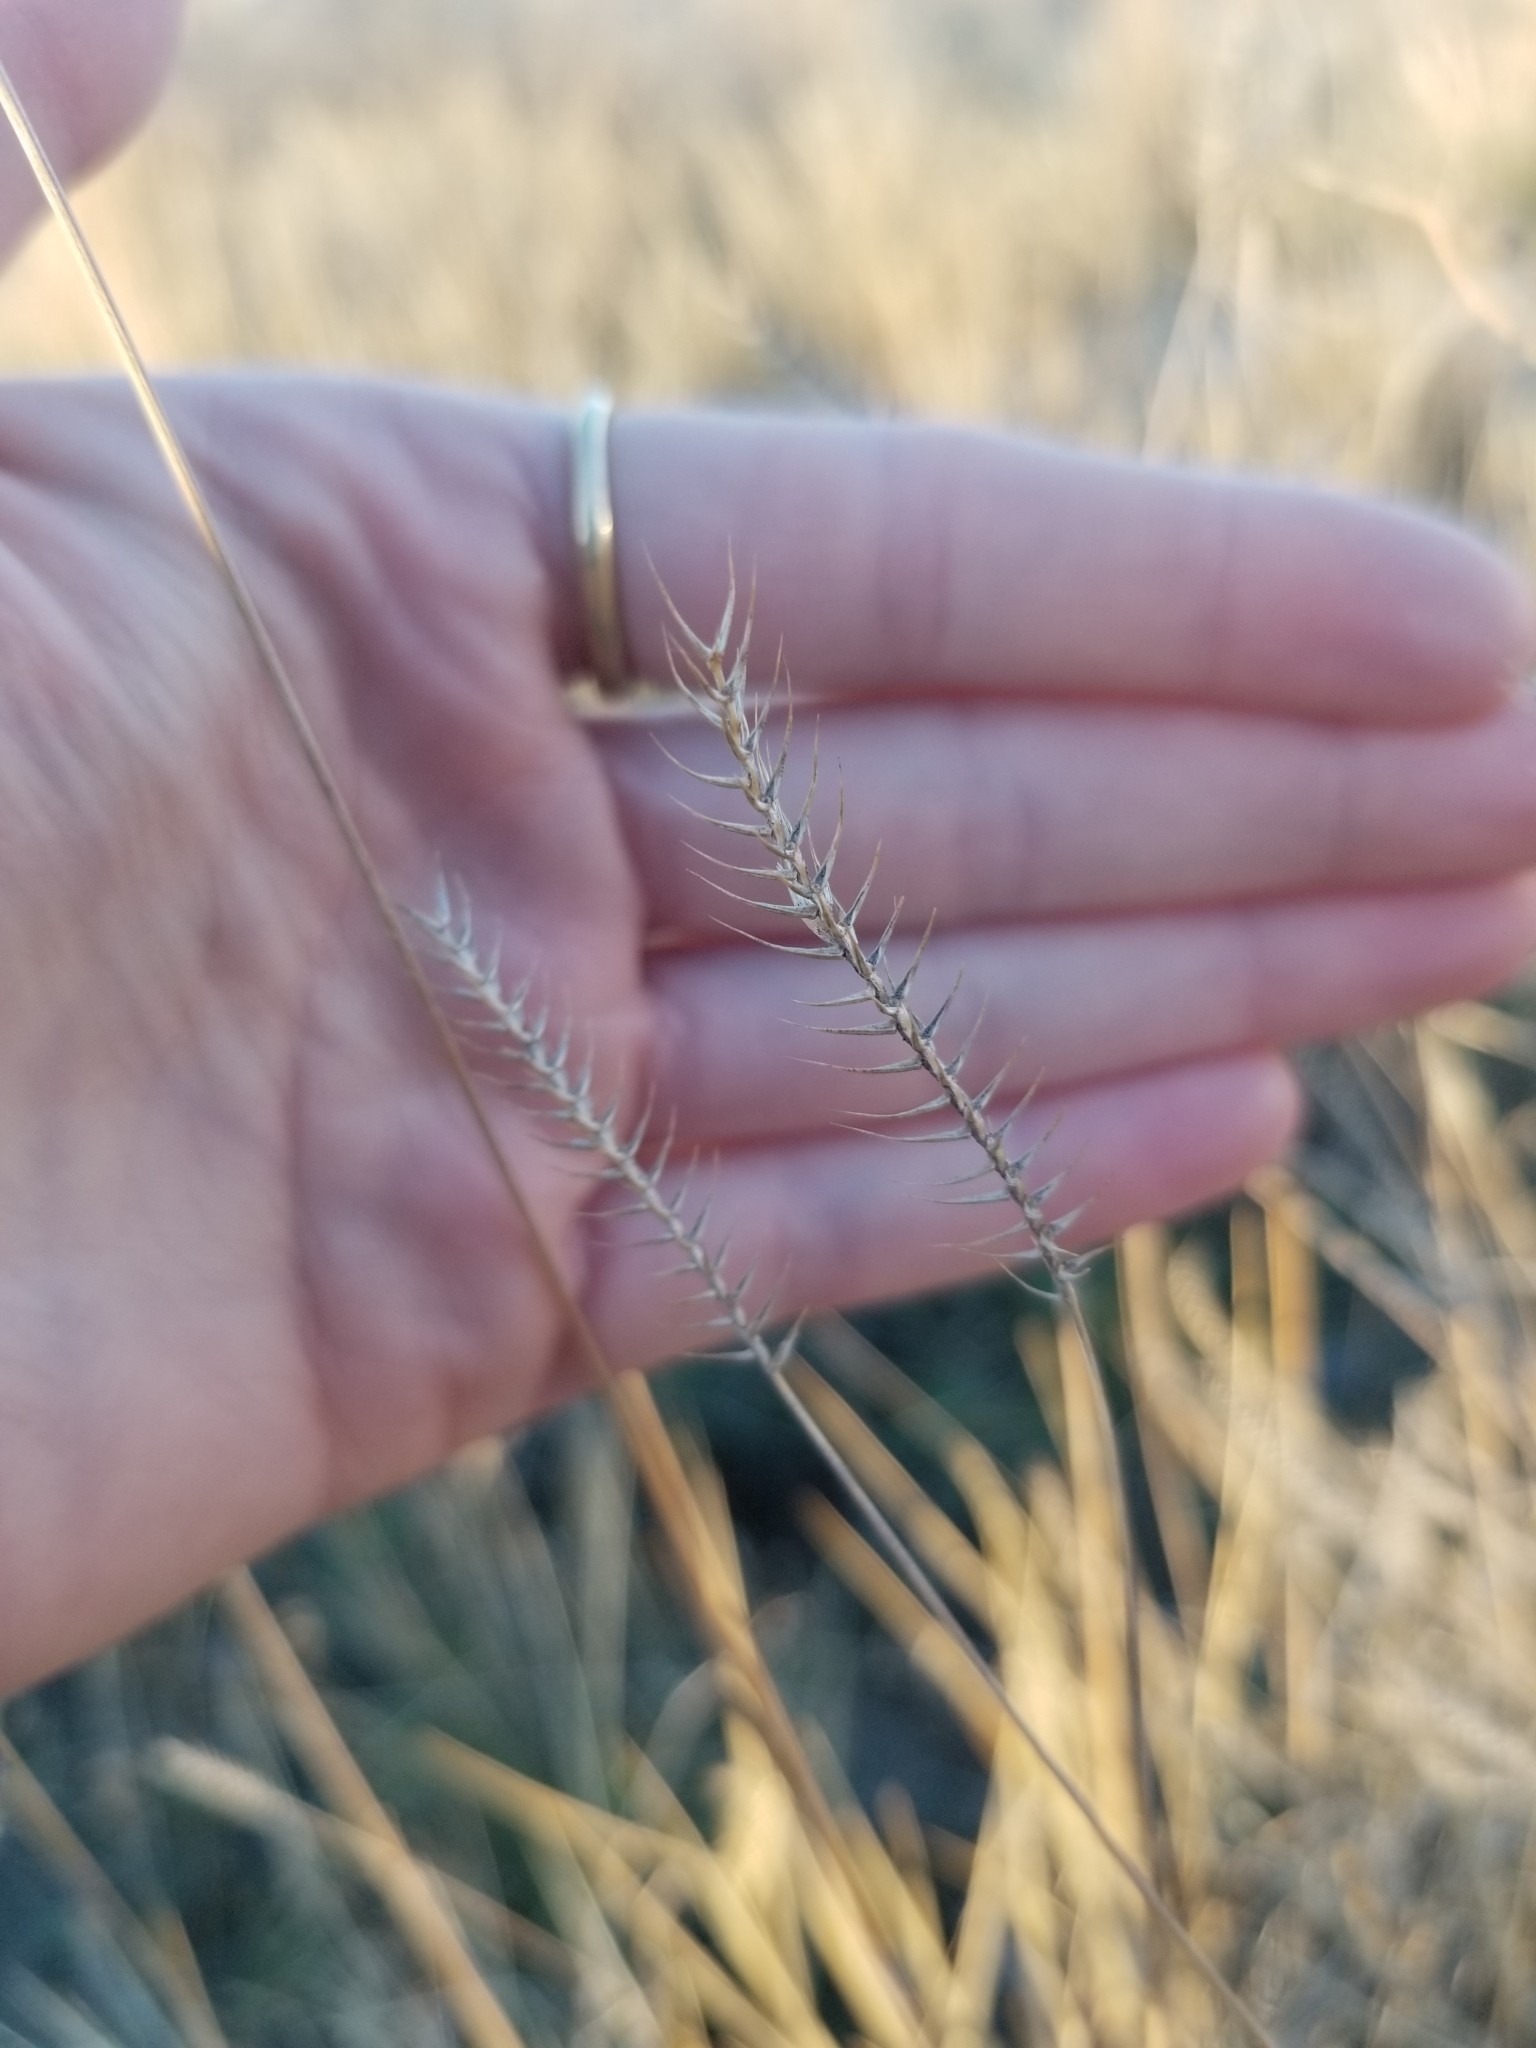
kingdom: Plantae
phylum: Tracheophyta
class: Liliopsida
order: Poales
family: Poaceae
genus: Agropyron
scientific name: Agropyron cristatum
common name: Crested wheatgrass
